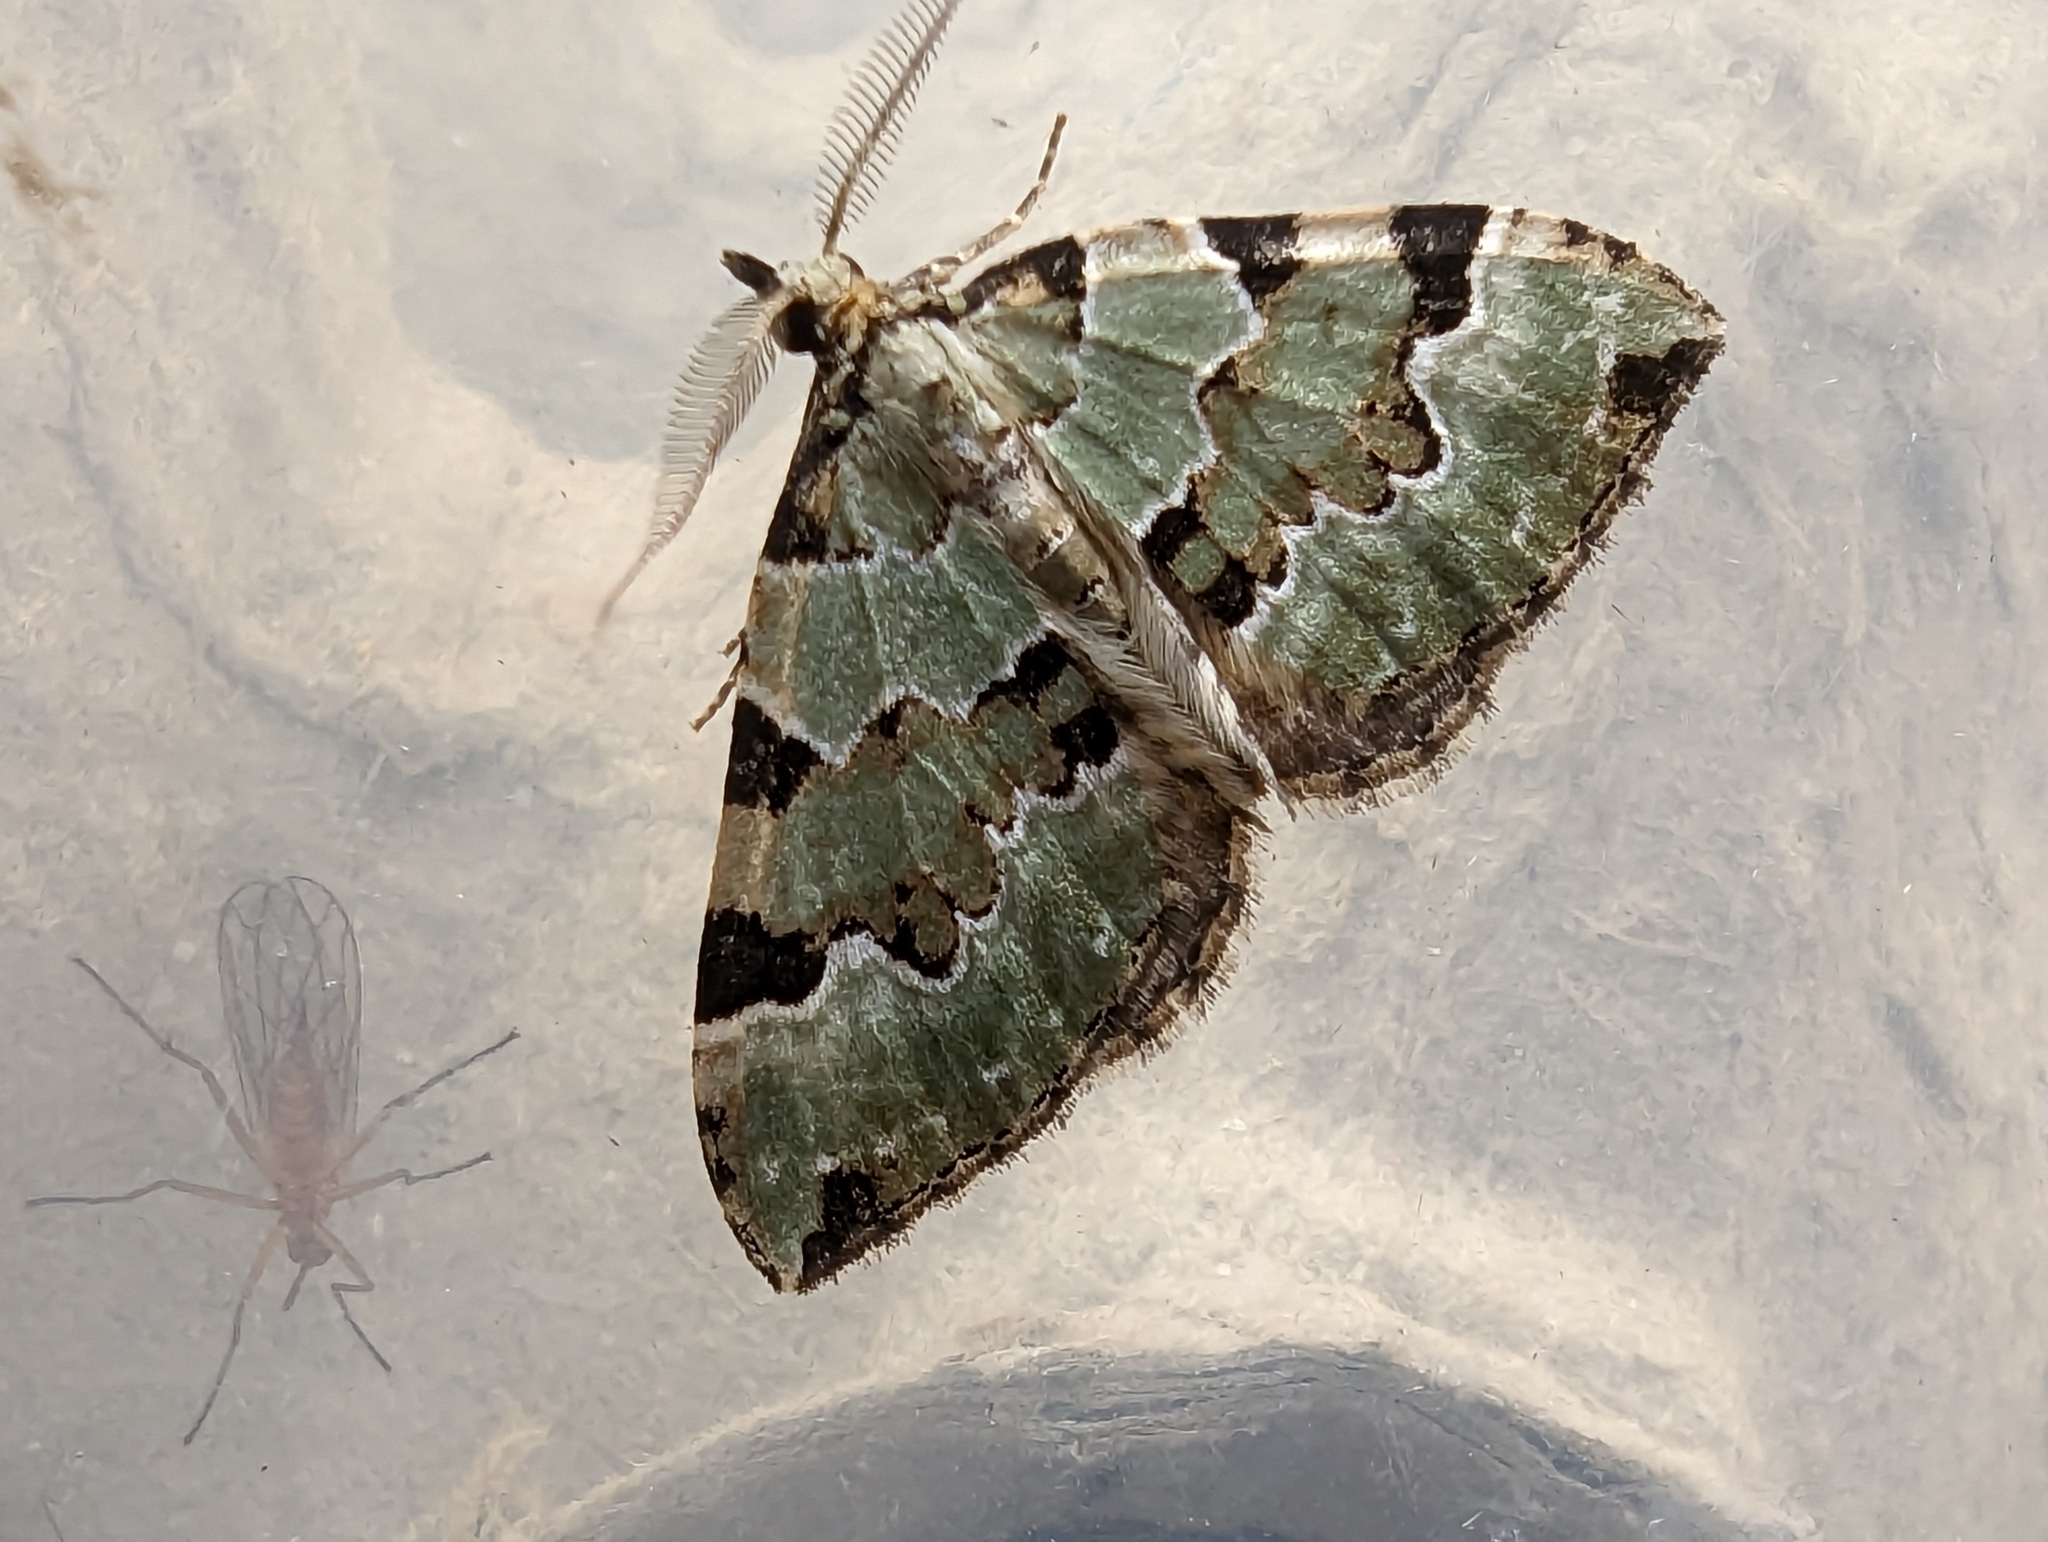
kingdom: Animalia
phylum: Arthropoda
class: Insecta
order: Lepidoptera
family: Geometridae
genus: Colostygia
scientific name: Colostygia pectinataria
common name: Green carpet
